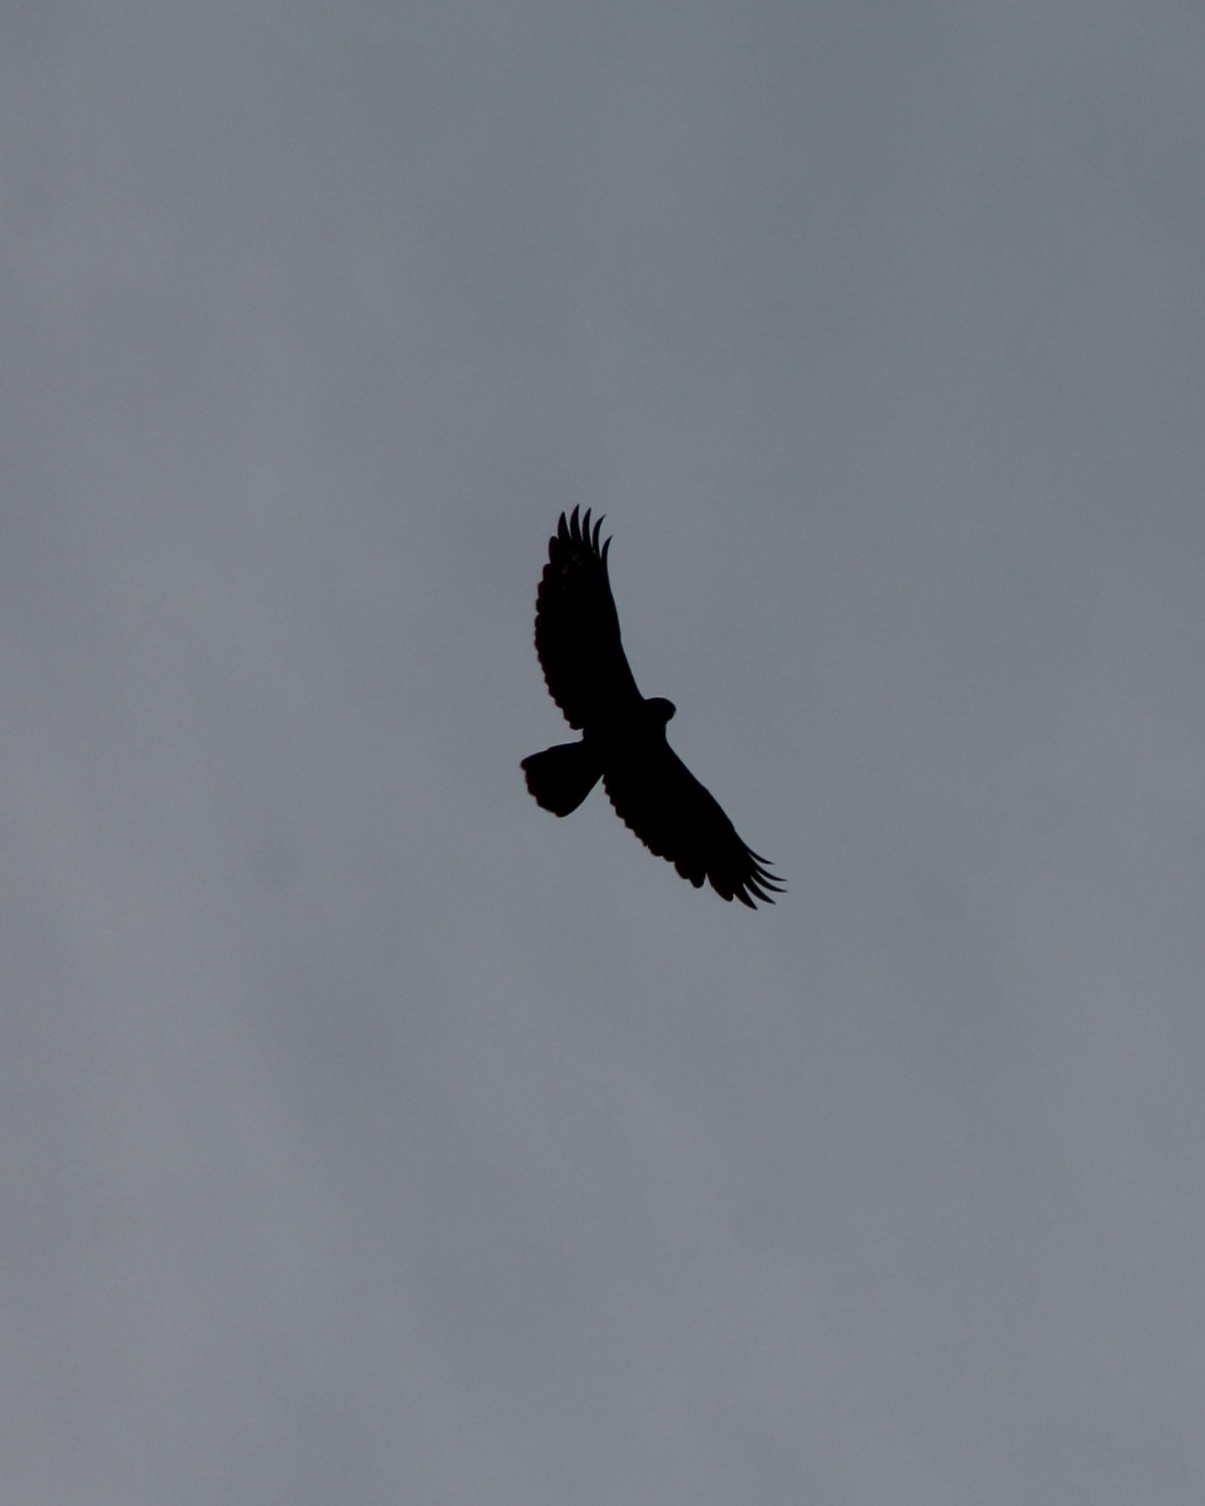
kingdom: Animalia
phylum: Chordata
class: Aves
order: Accipitriformes
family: Accipitridae
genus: Buteo
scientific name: Buteo buteo
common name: Common buzzard
